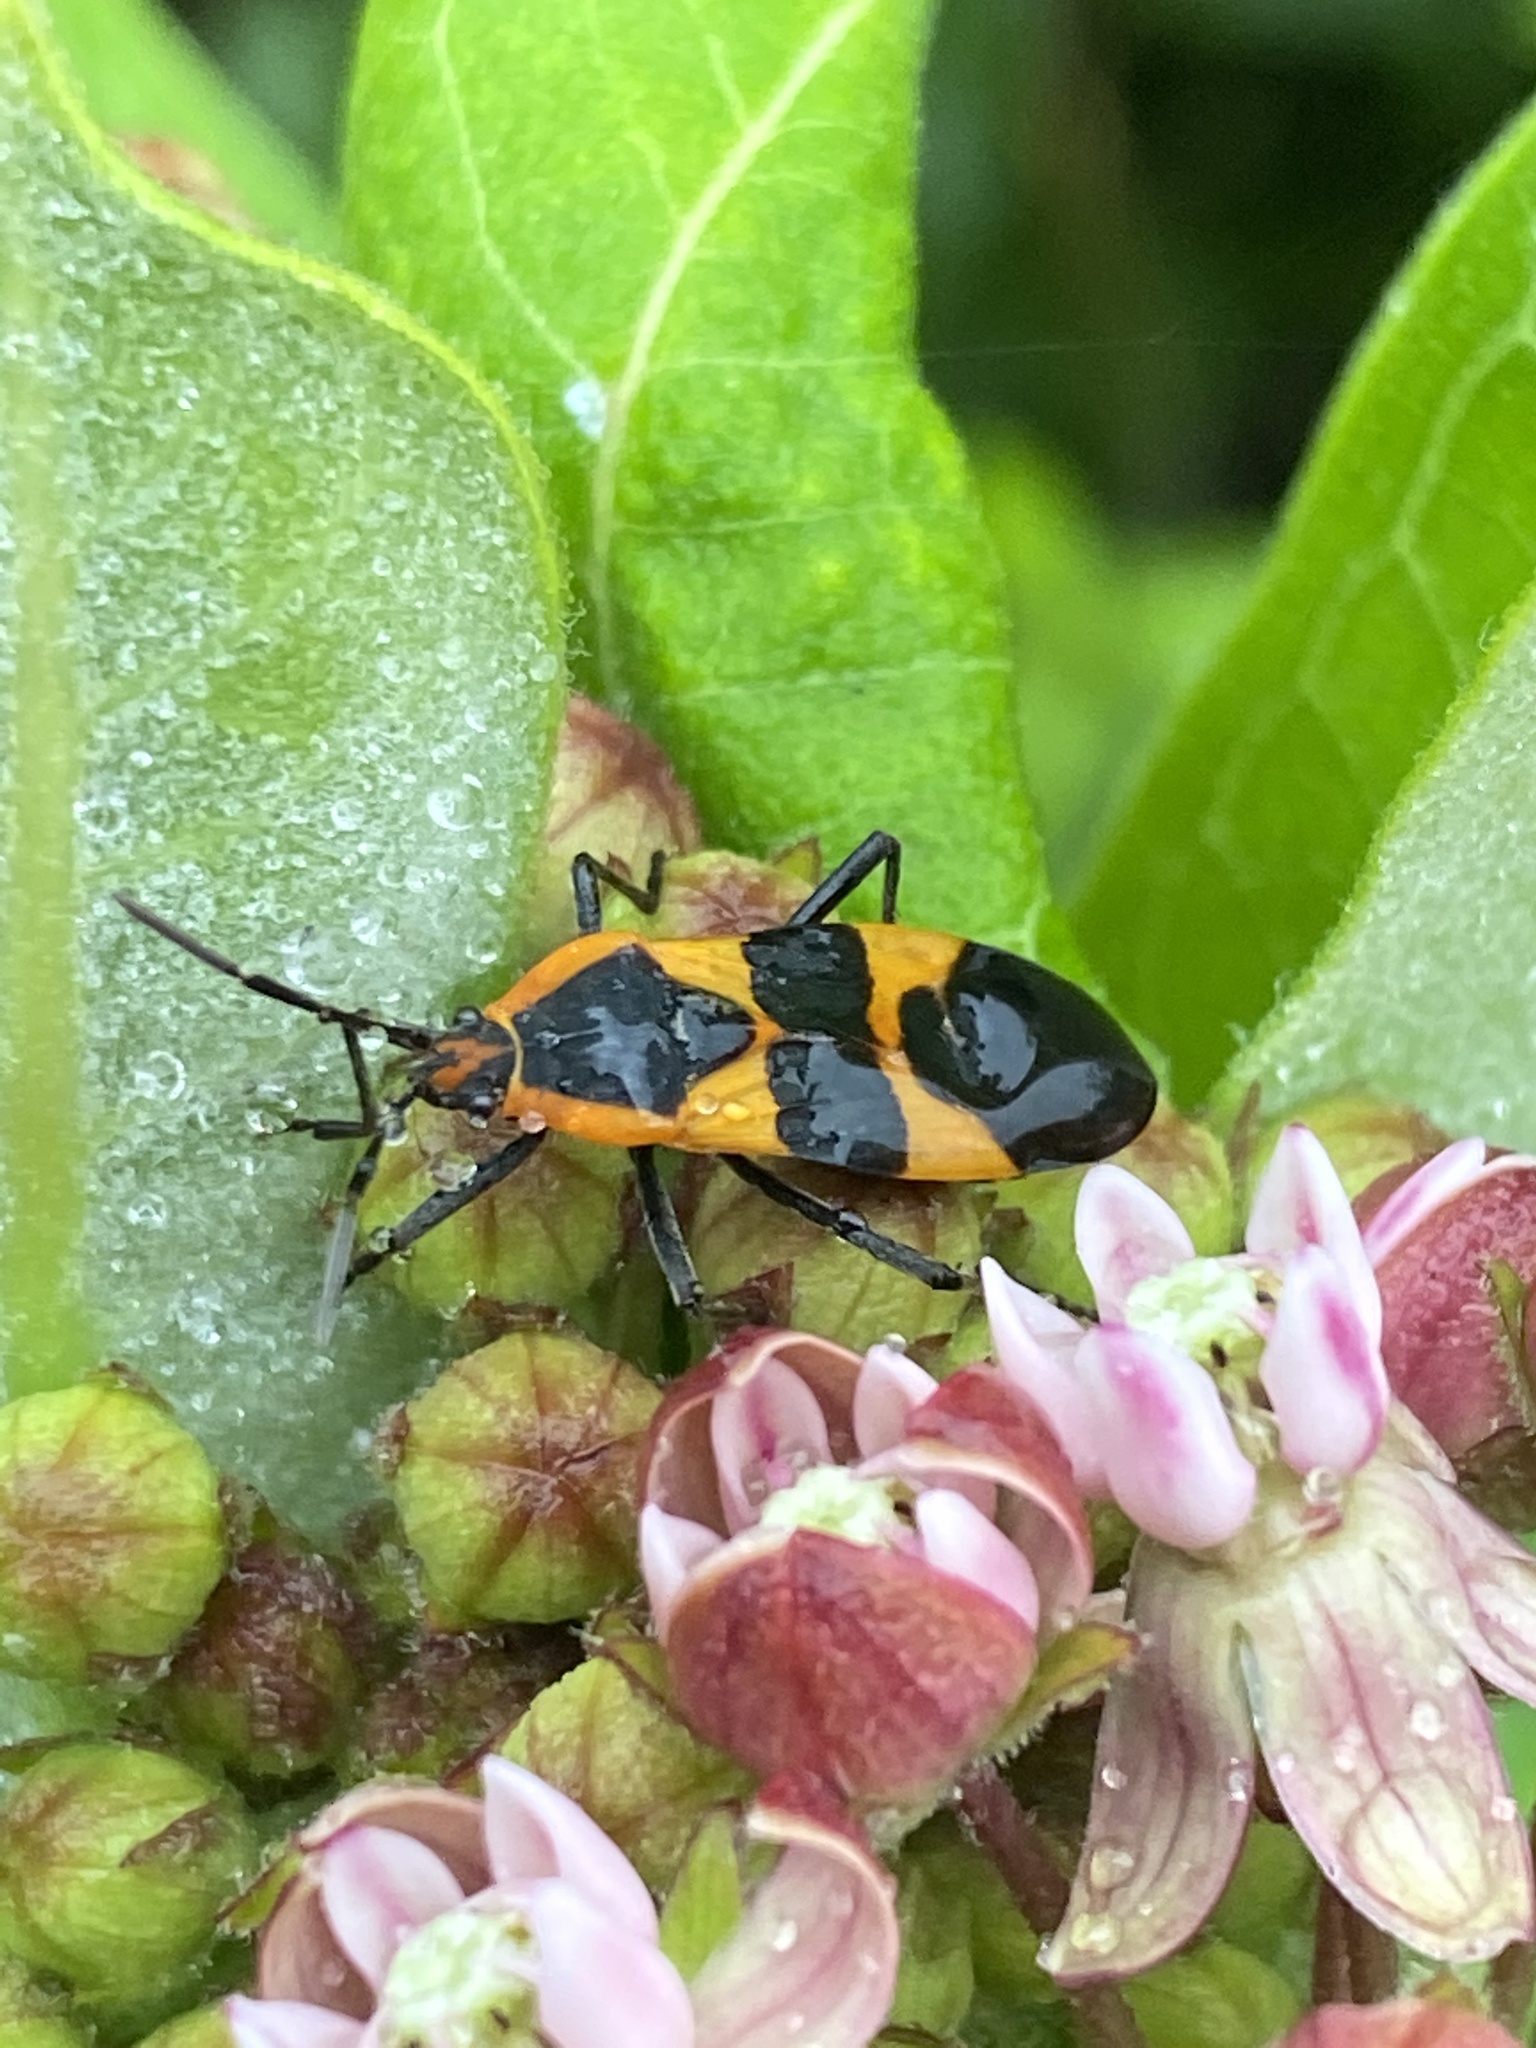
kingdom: Animalia
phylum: Arthropoda
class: Insecta
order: Hemiptera
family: Lygaeidae
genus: Oncopeltus
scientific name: Oncopeltus fasciatus
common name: Large milkweed bug
